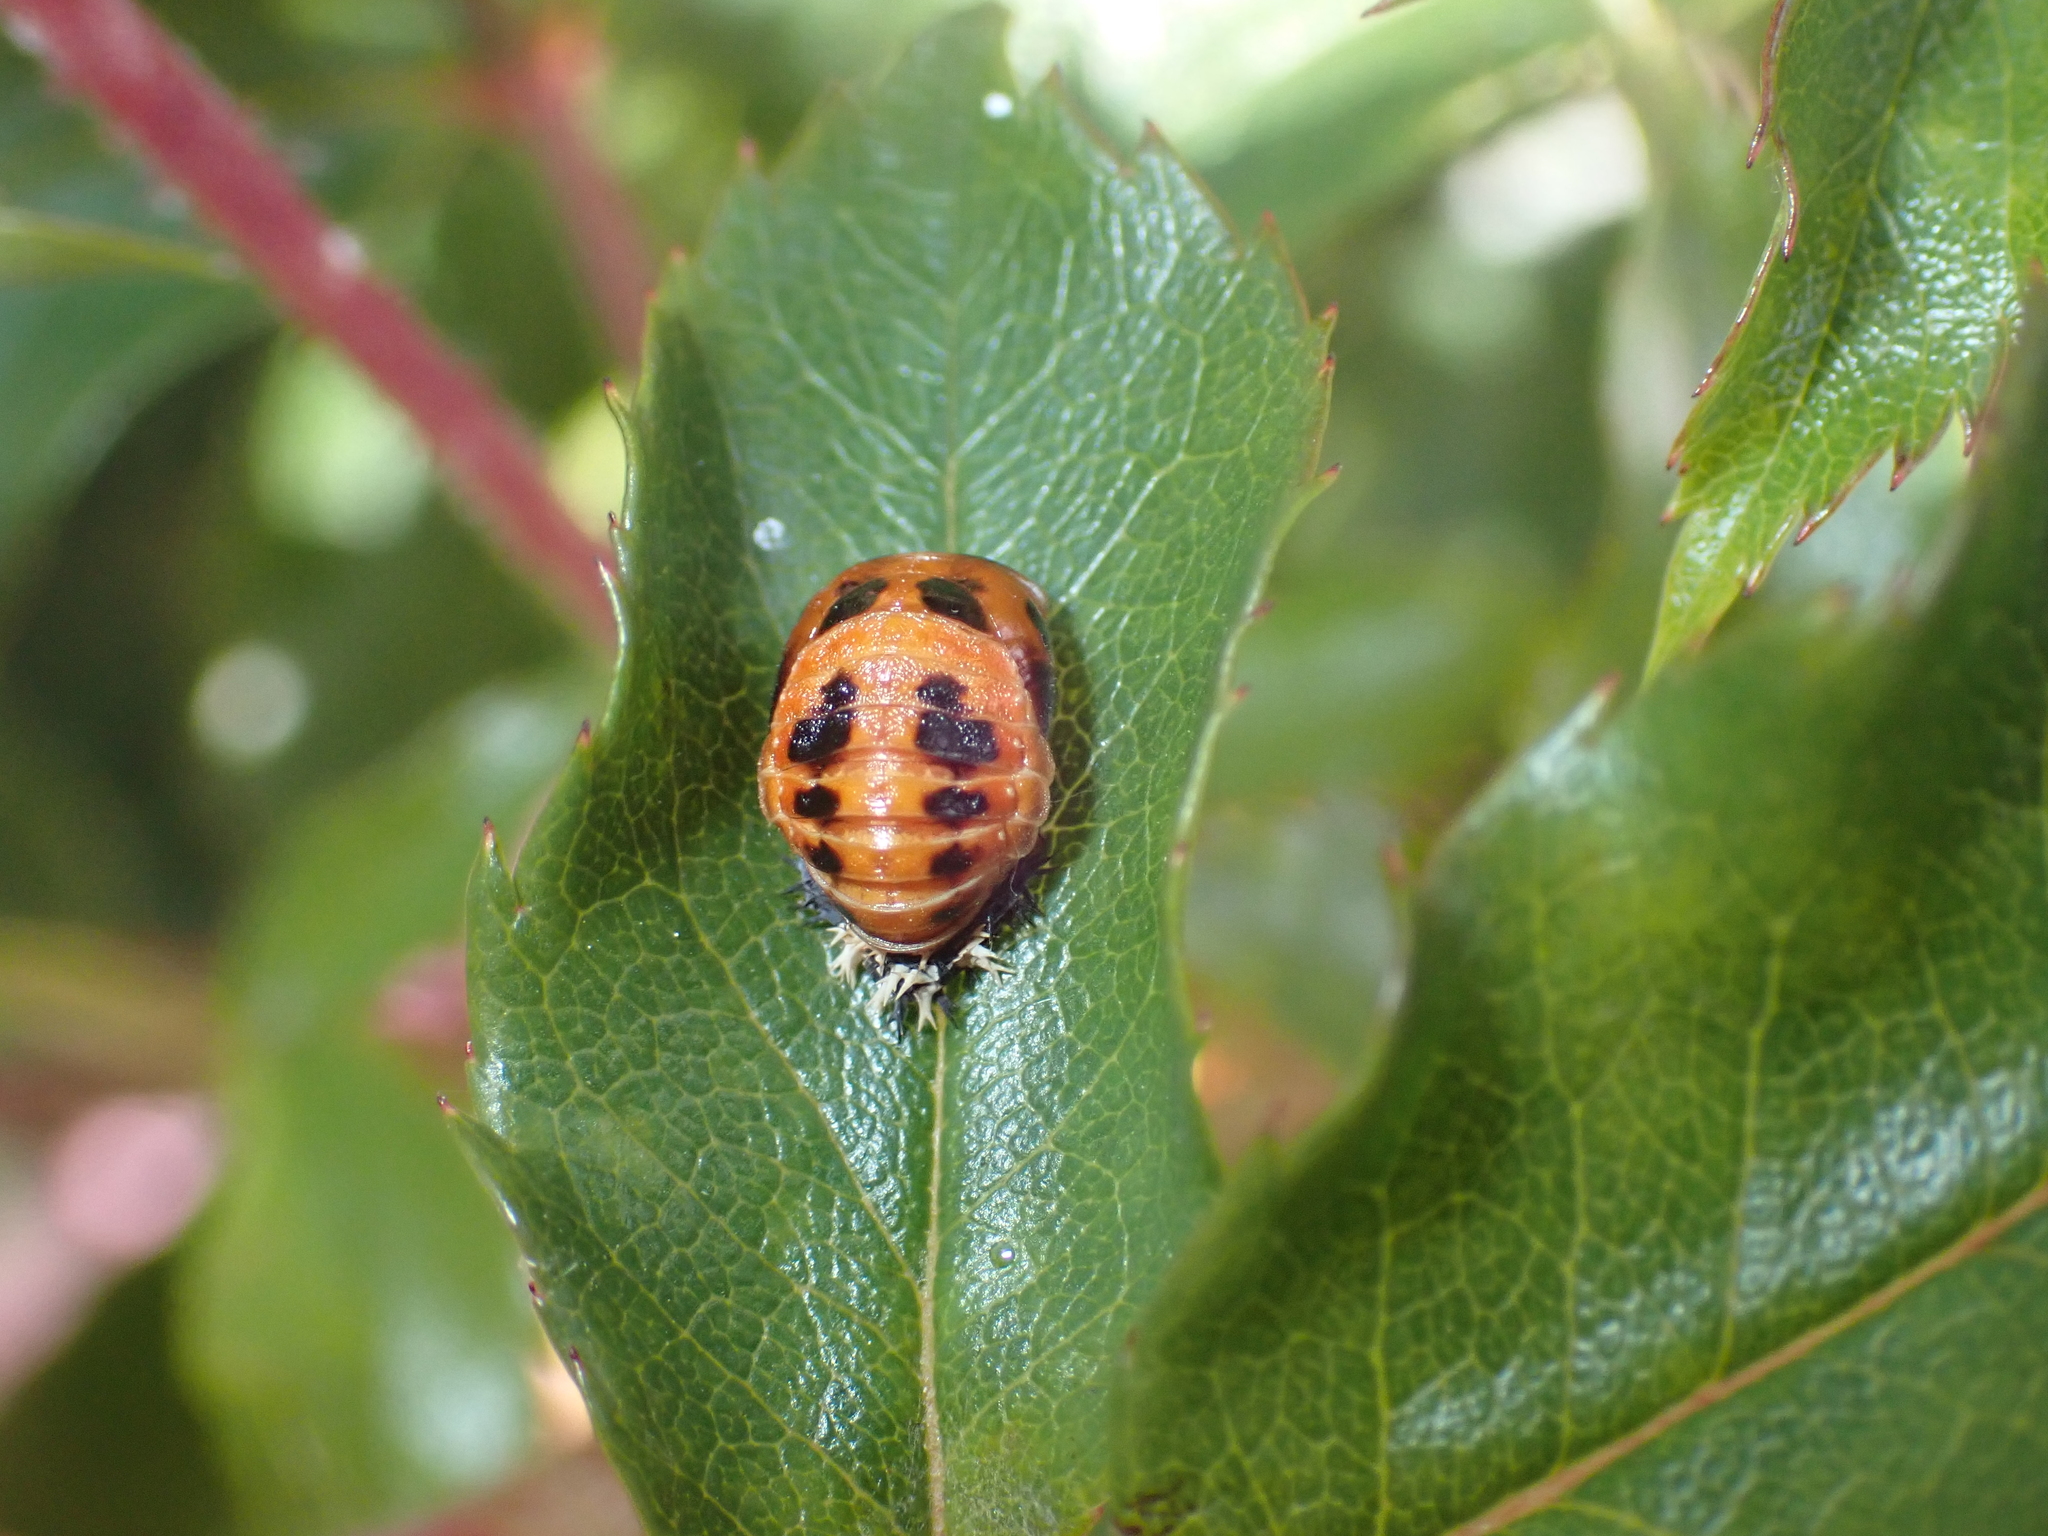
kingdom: Animalia
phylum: Arthropoda
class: Insecta
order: Coleoptera
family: Coccinellidae
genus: Harmonia
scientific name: Harmonia axyridis
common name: Harlequin ladybird
